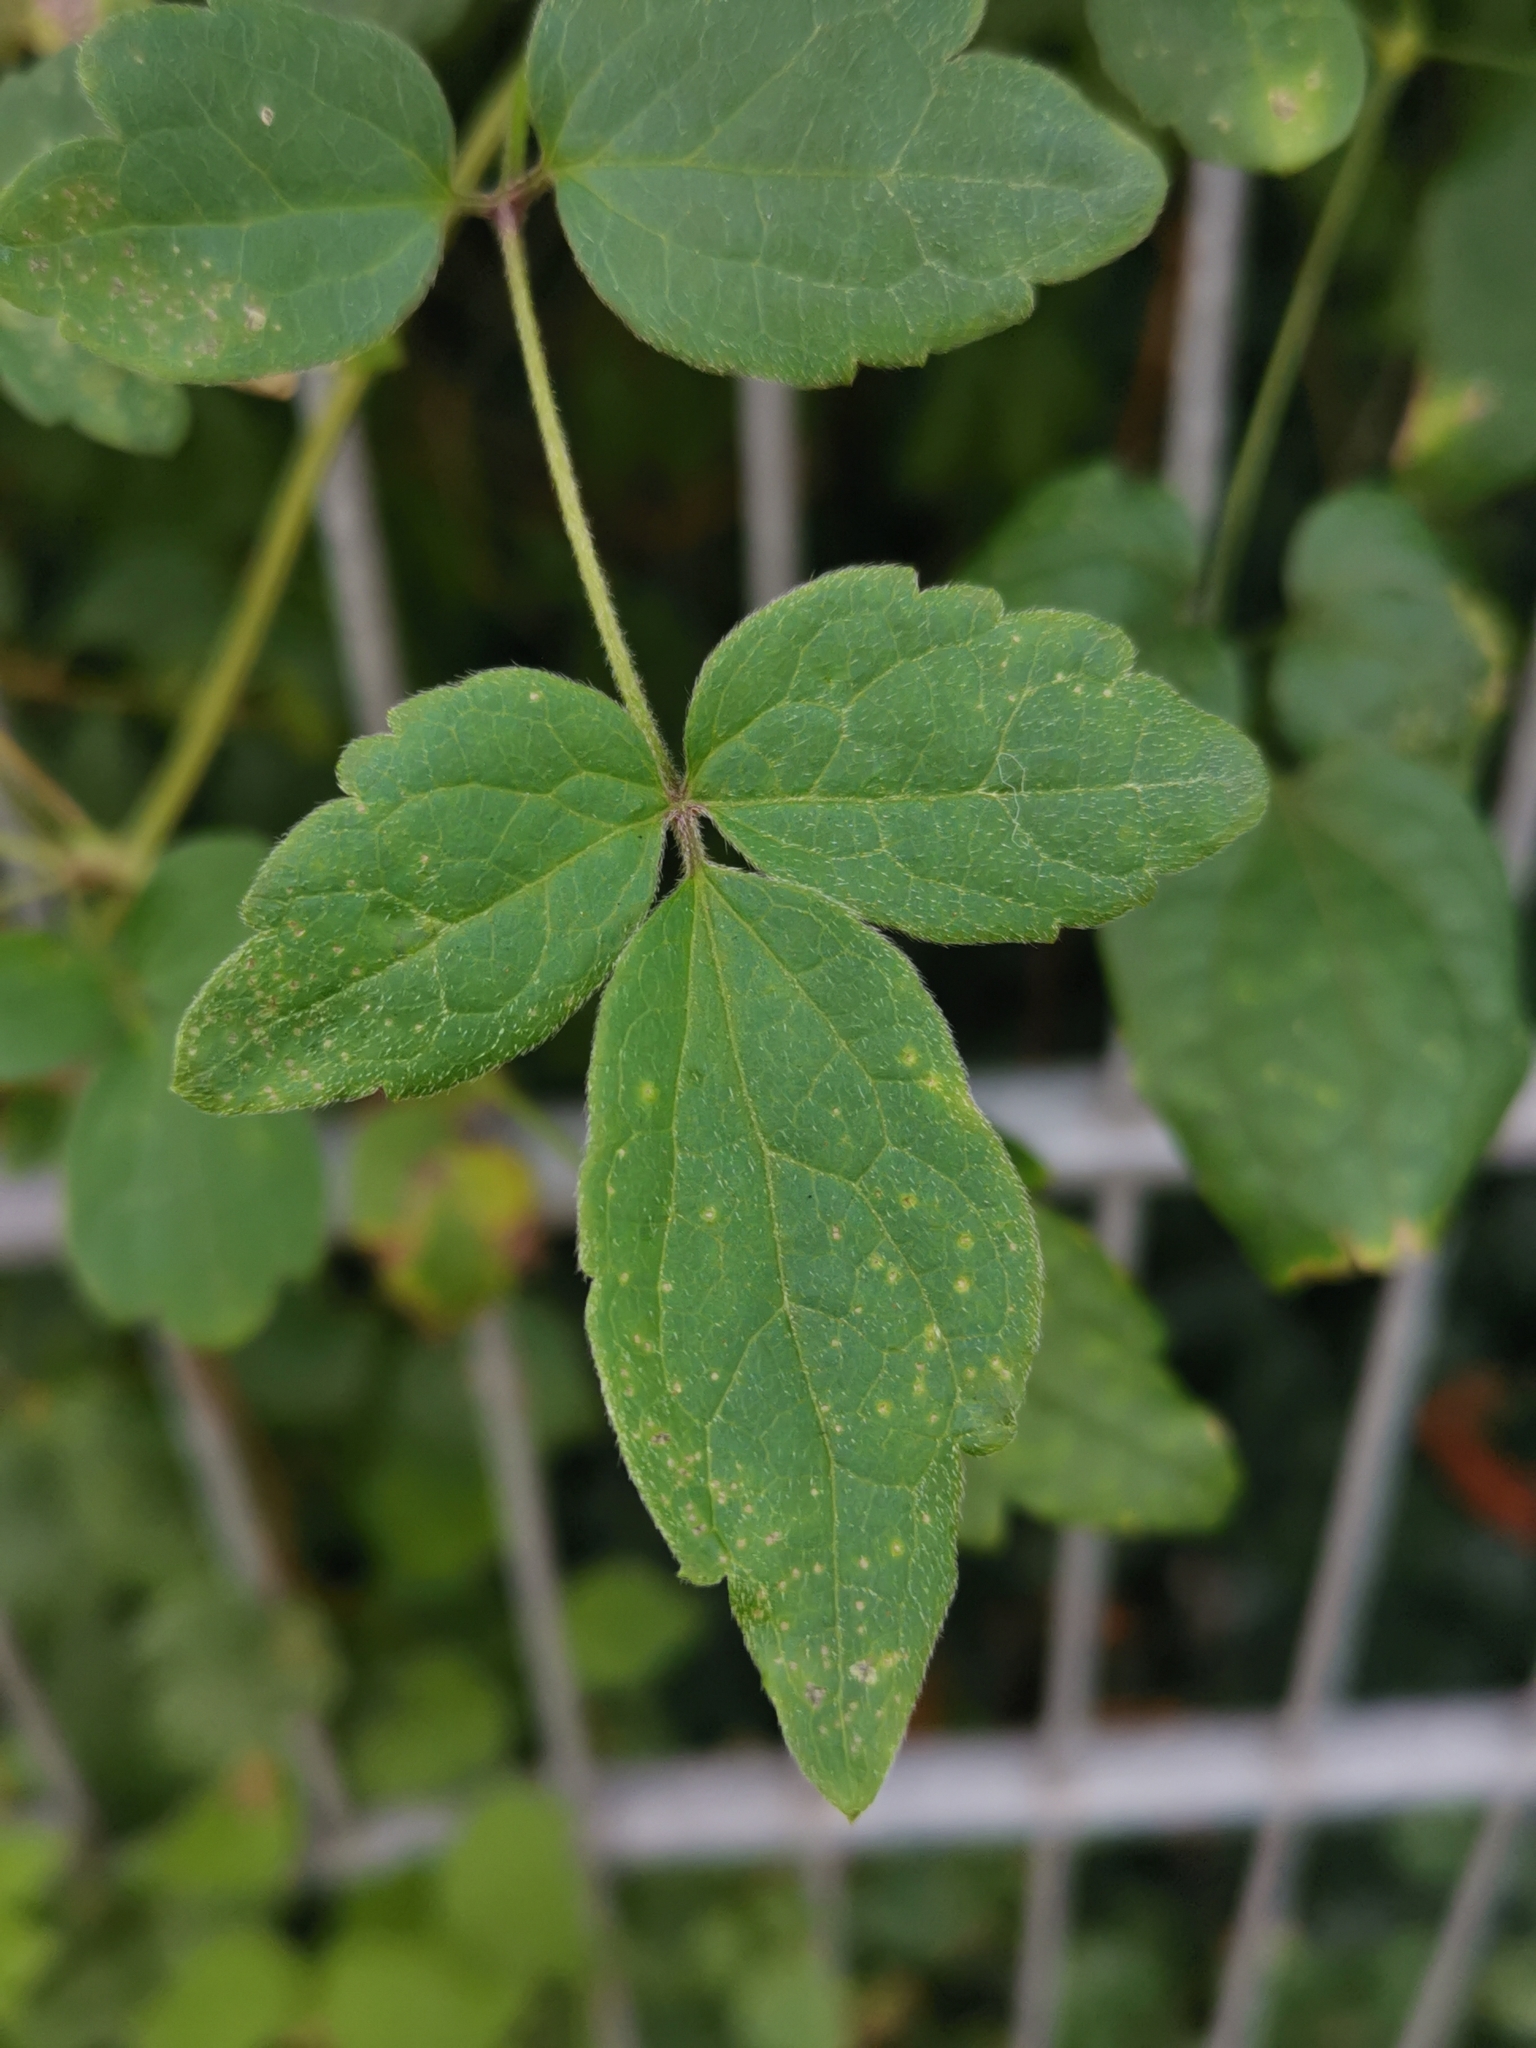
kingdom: Plantae
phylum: Tracheophyta
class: Magnoliopsida
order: Ranunculales
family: Ranunculaceae
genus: Clematis
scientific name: Clematis vitalba
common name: Evergreen clematis
